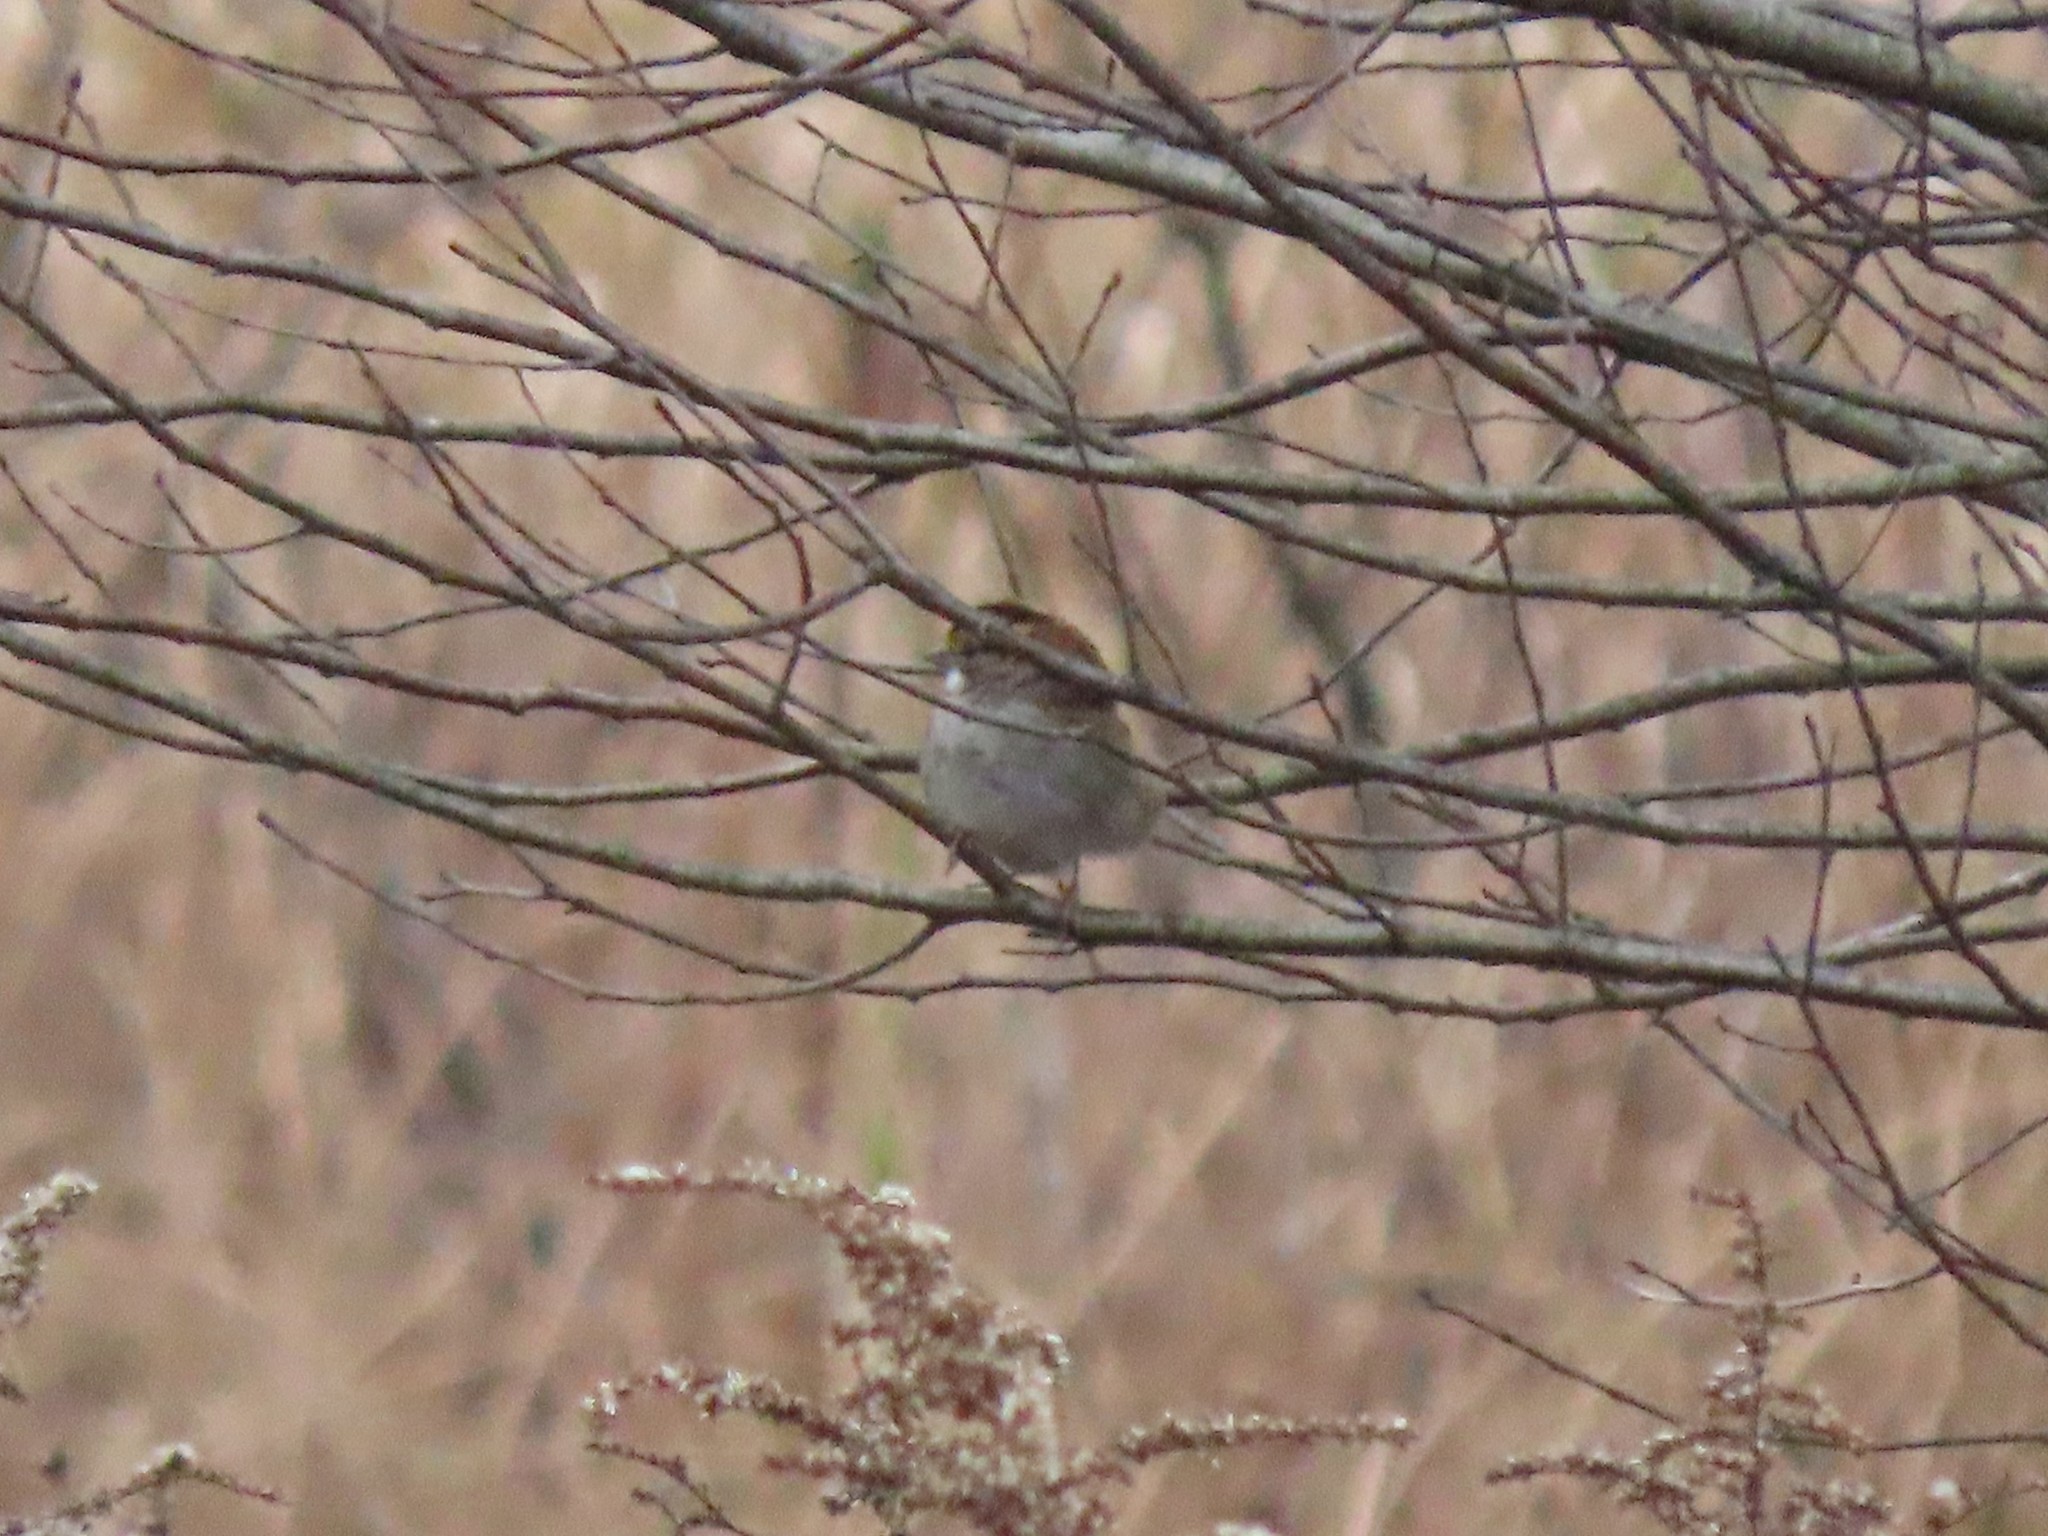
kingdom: Animalia
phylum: Chordata
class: Aves
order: Passeriformes
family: Passerellidae
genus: Zonotrichia
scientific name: Zonotrichia albicollis
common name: White-throated sparrow
